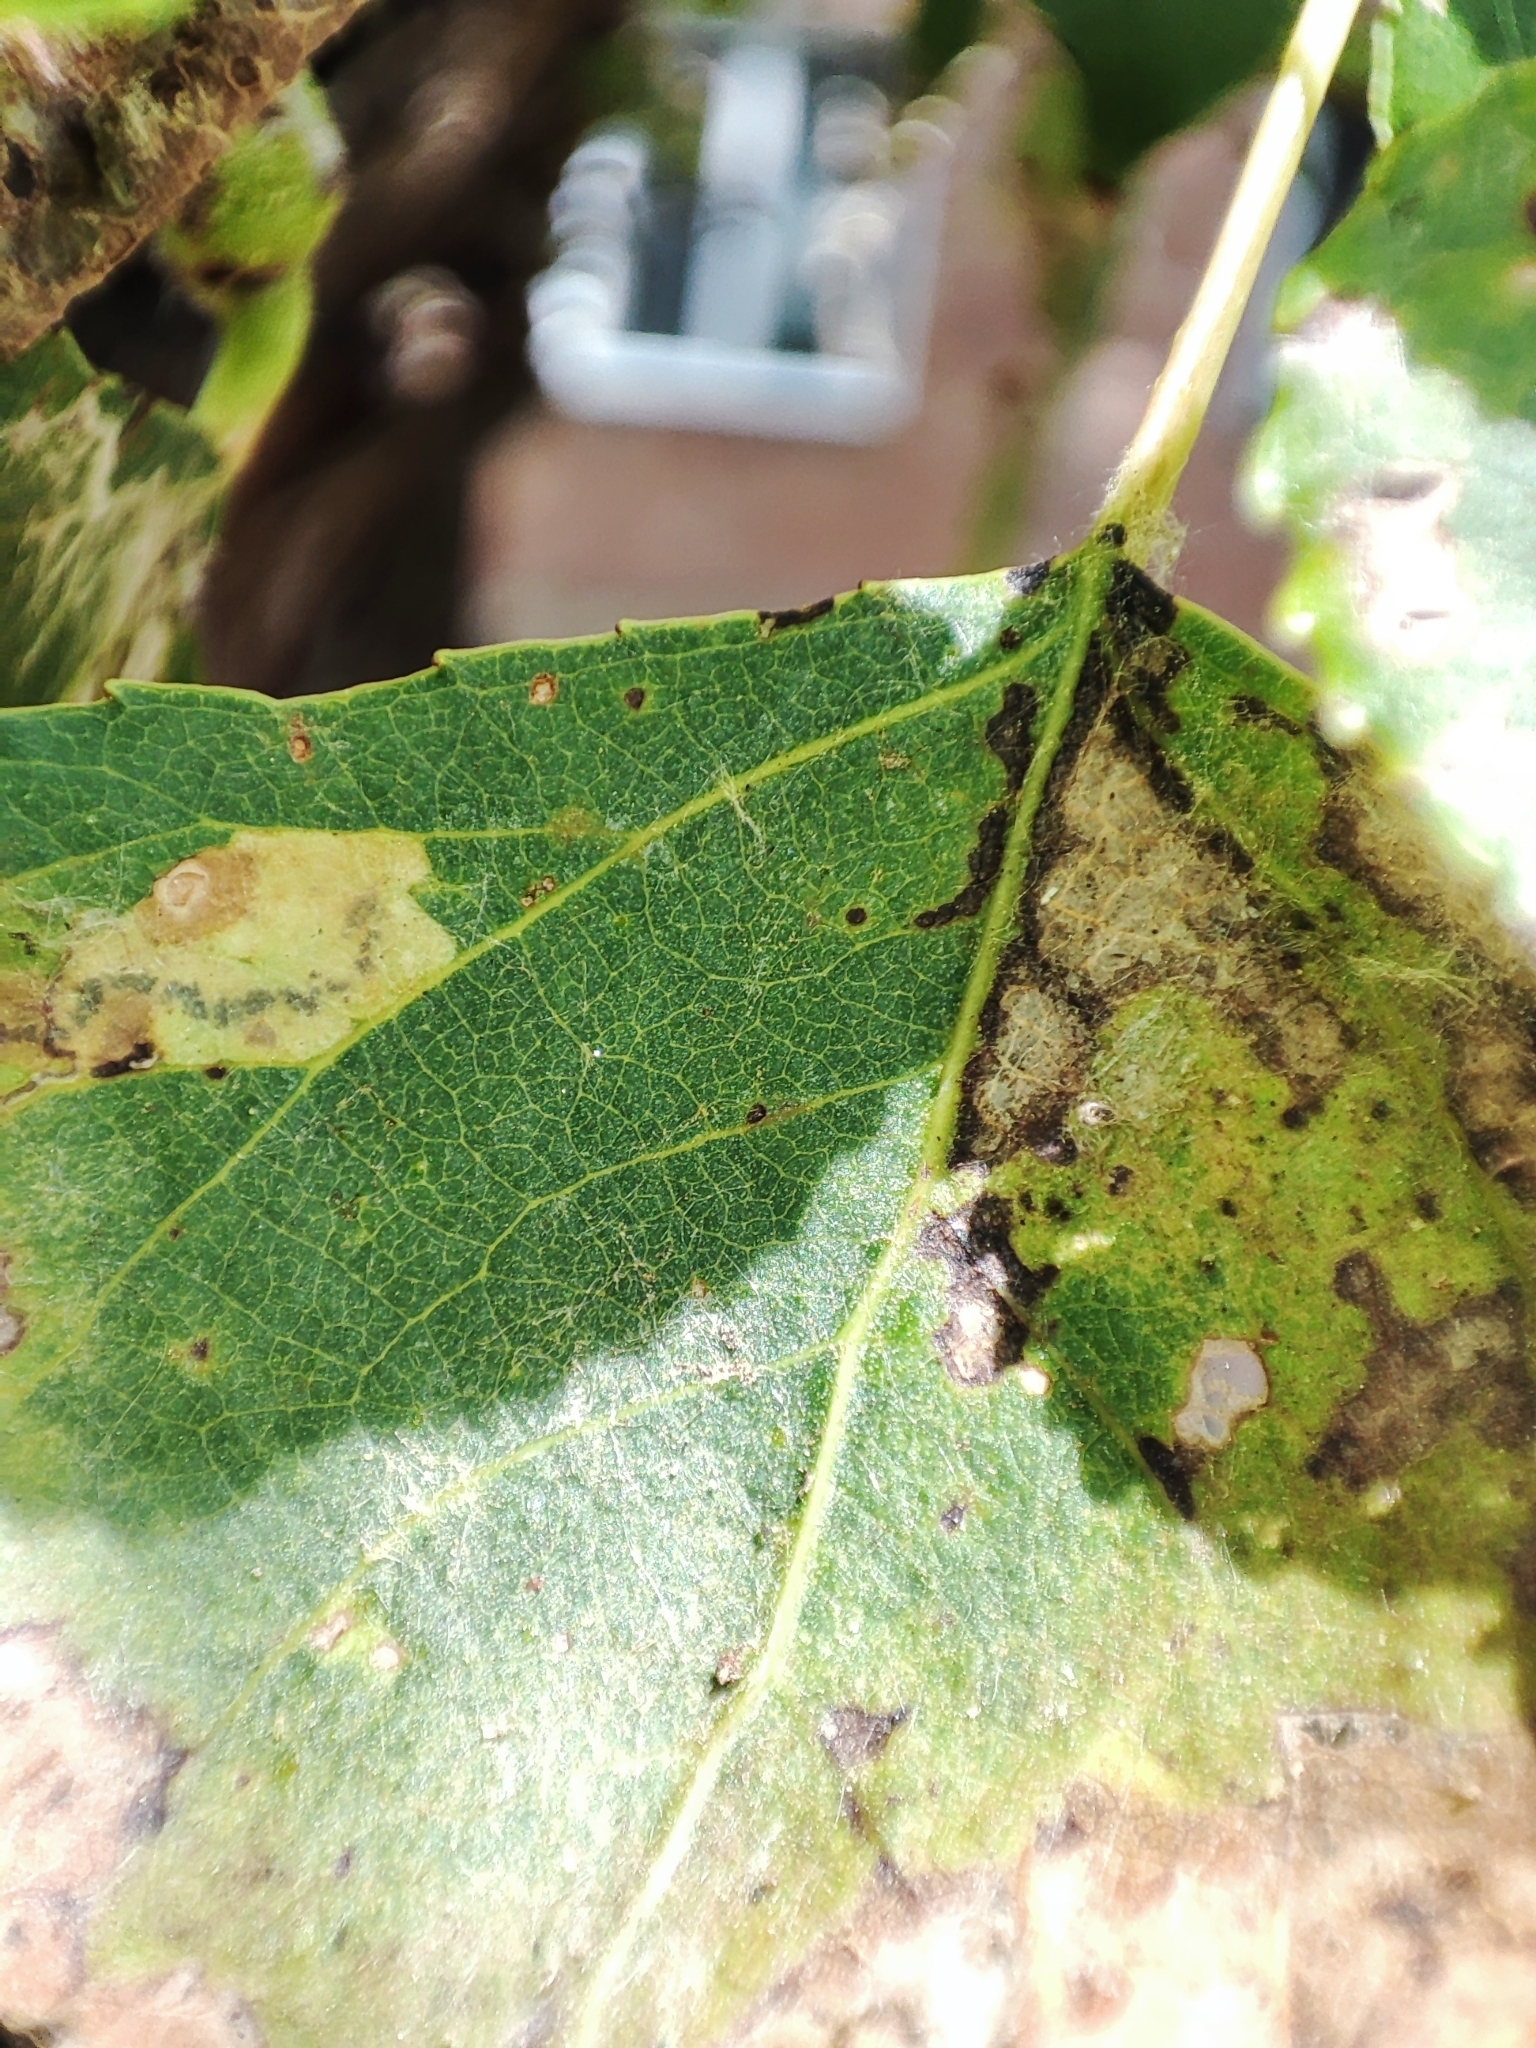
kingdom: Animalia
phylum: Arthropoda
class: Insecta
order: Lepidoptera
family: Nepticulidae
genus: Stigmella
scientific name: Stigmella trimaculella
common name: Black-poplar pigmy
